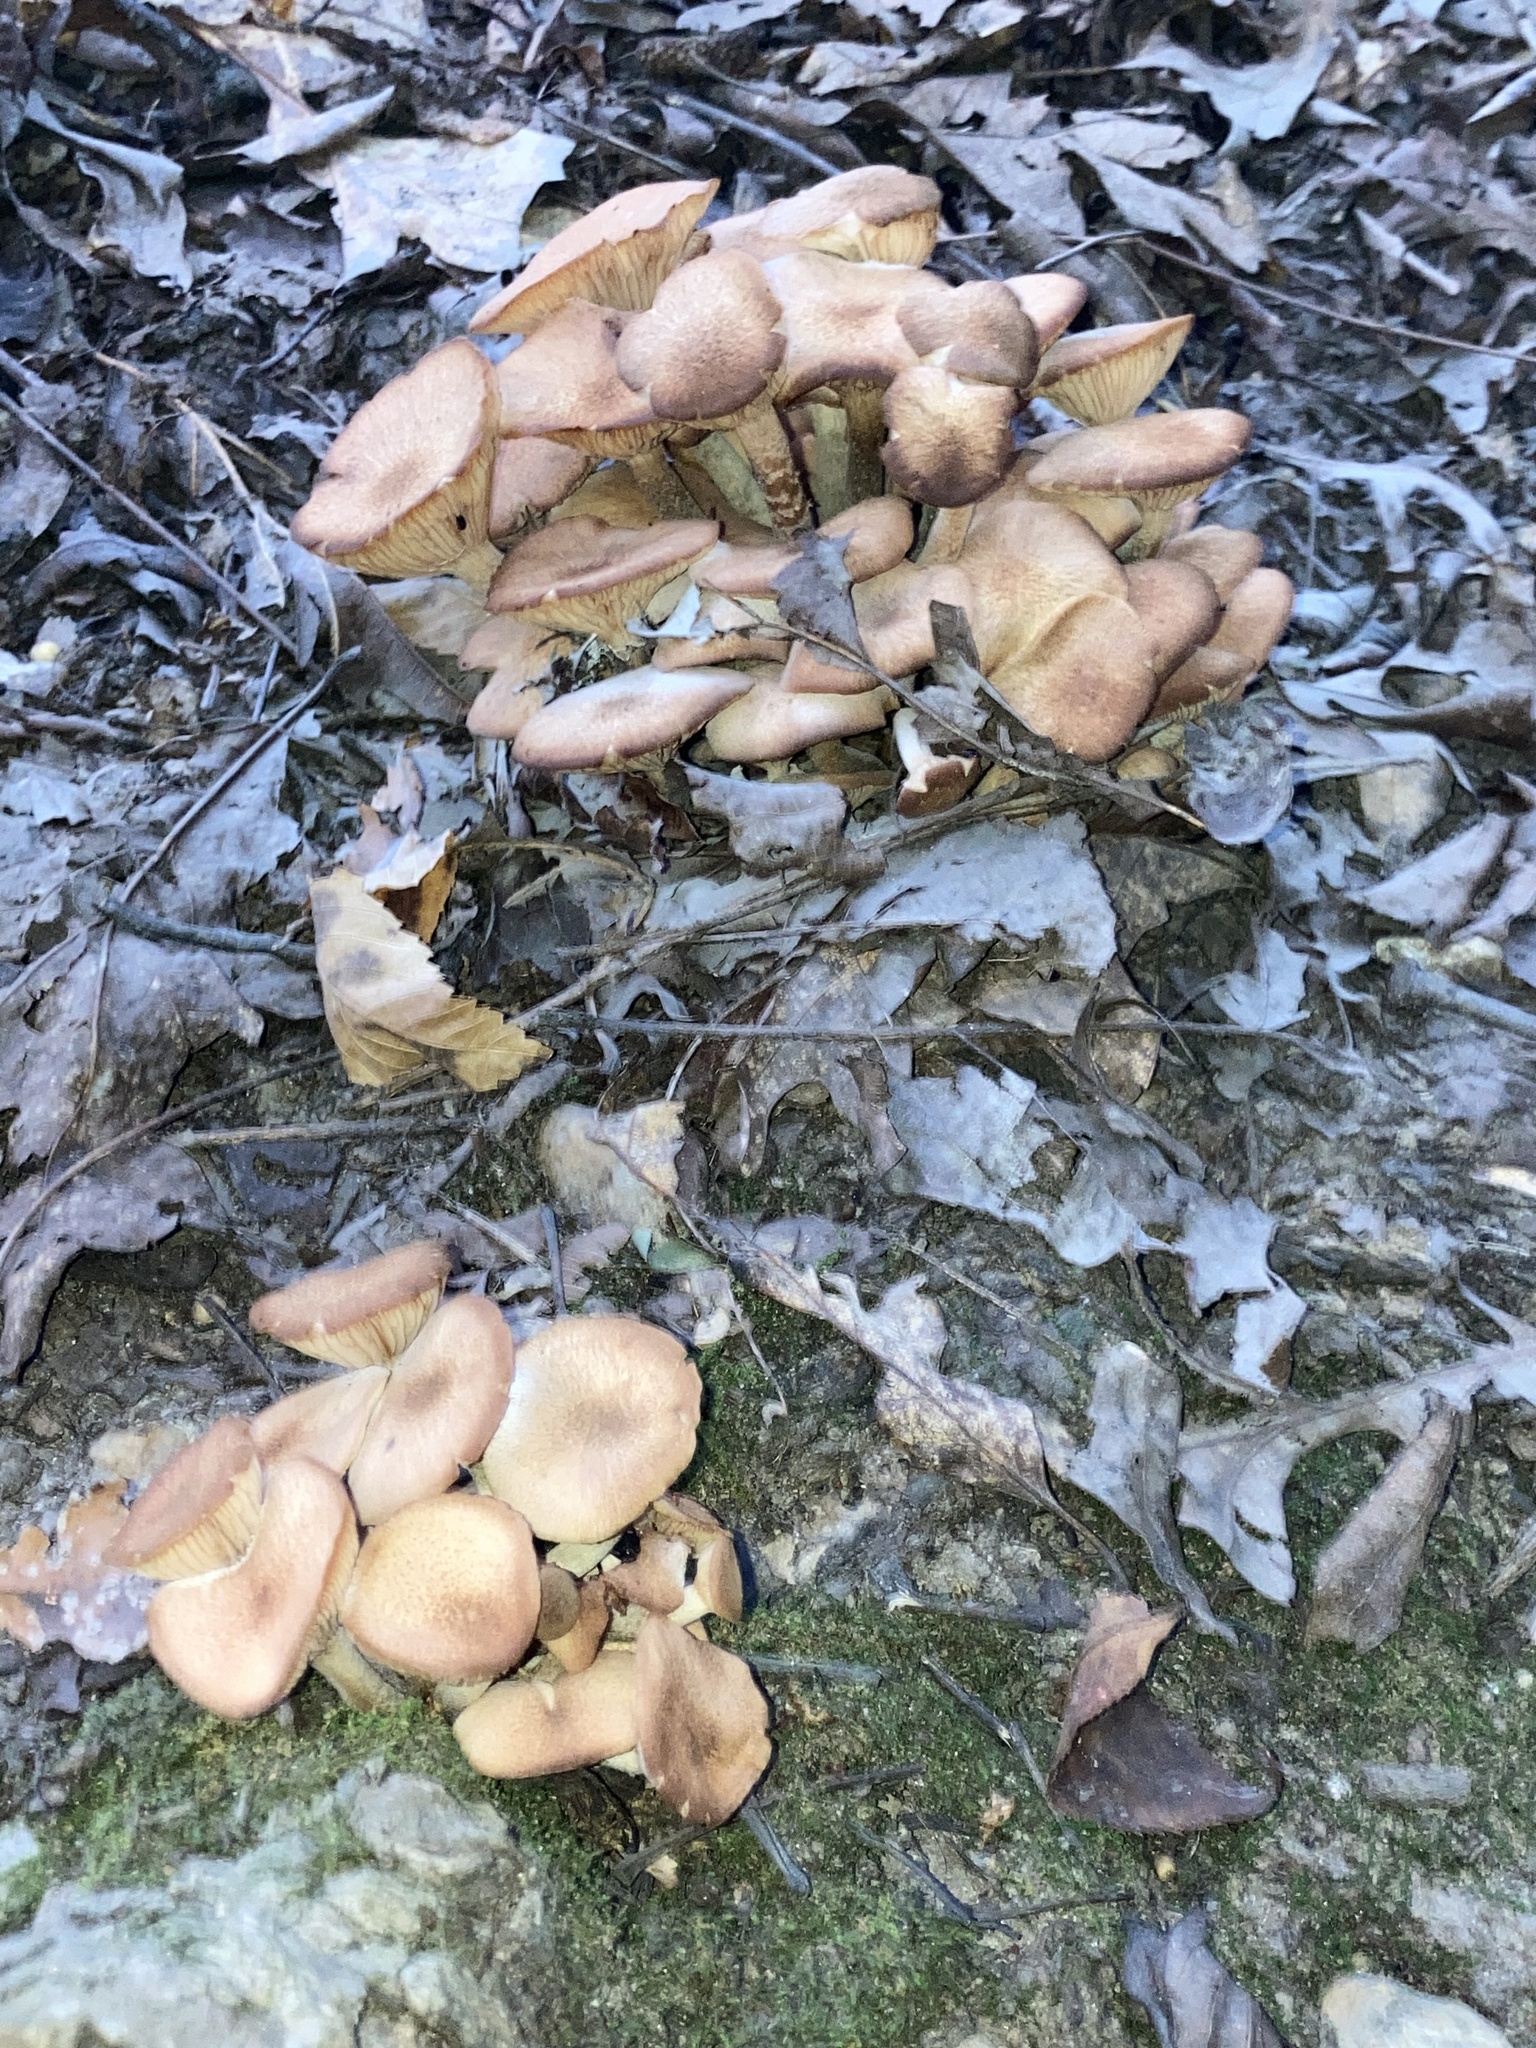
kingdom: Fungi
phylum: Basidiomycota
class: Agaricomycetes
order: Agaricales
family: Physalacriaceae
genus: Desarmillaria
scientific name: Desarmillaria caespitosa
